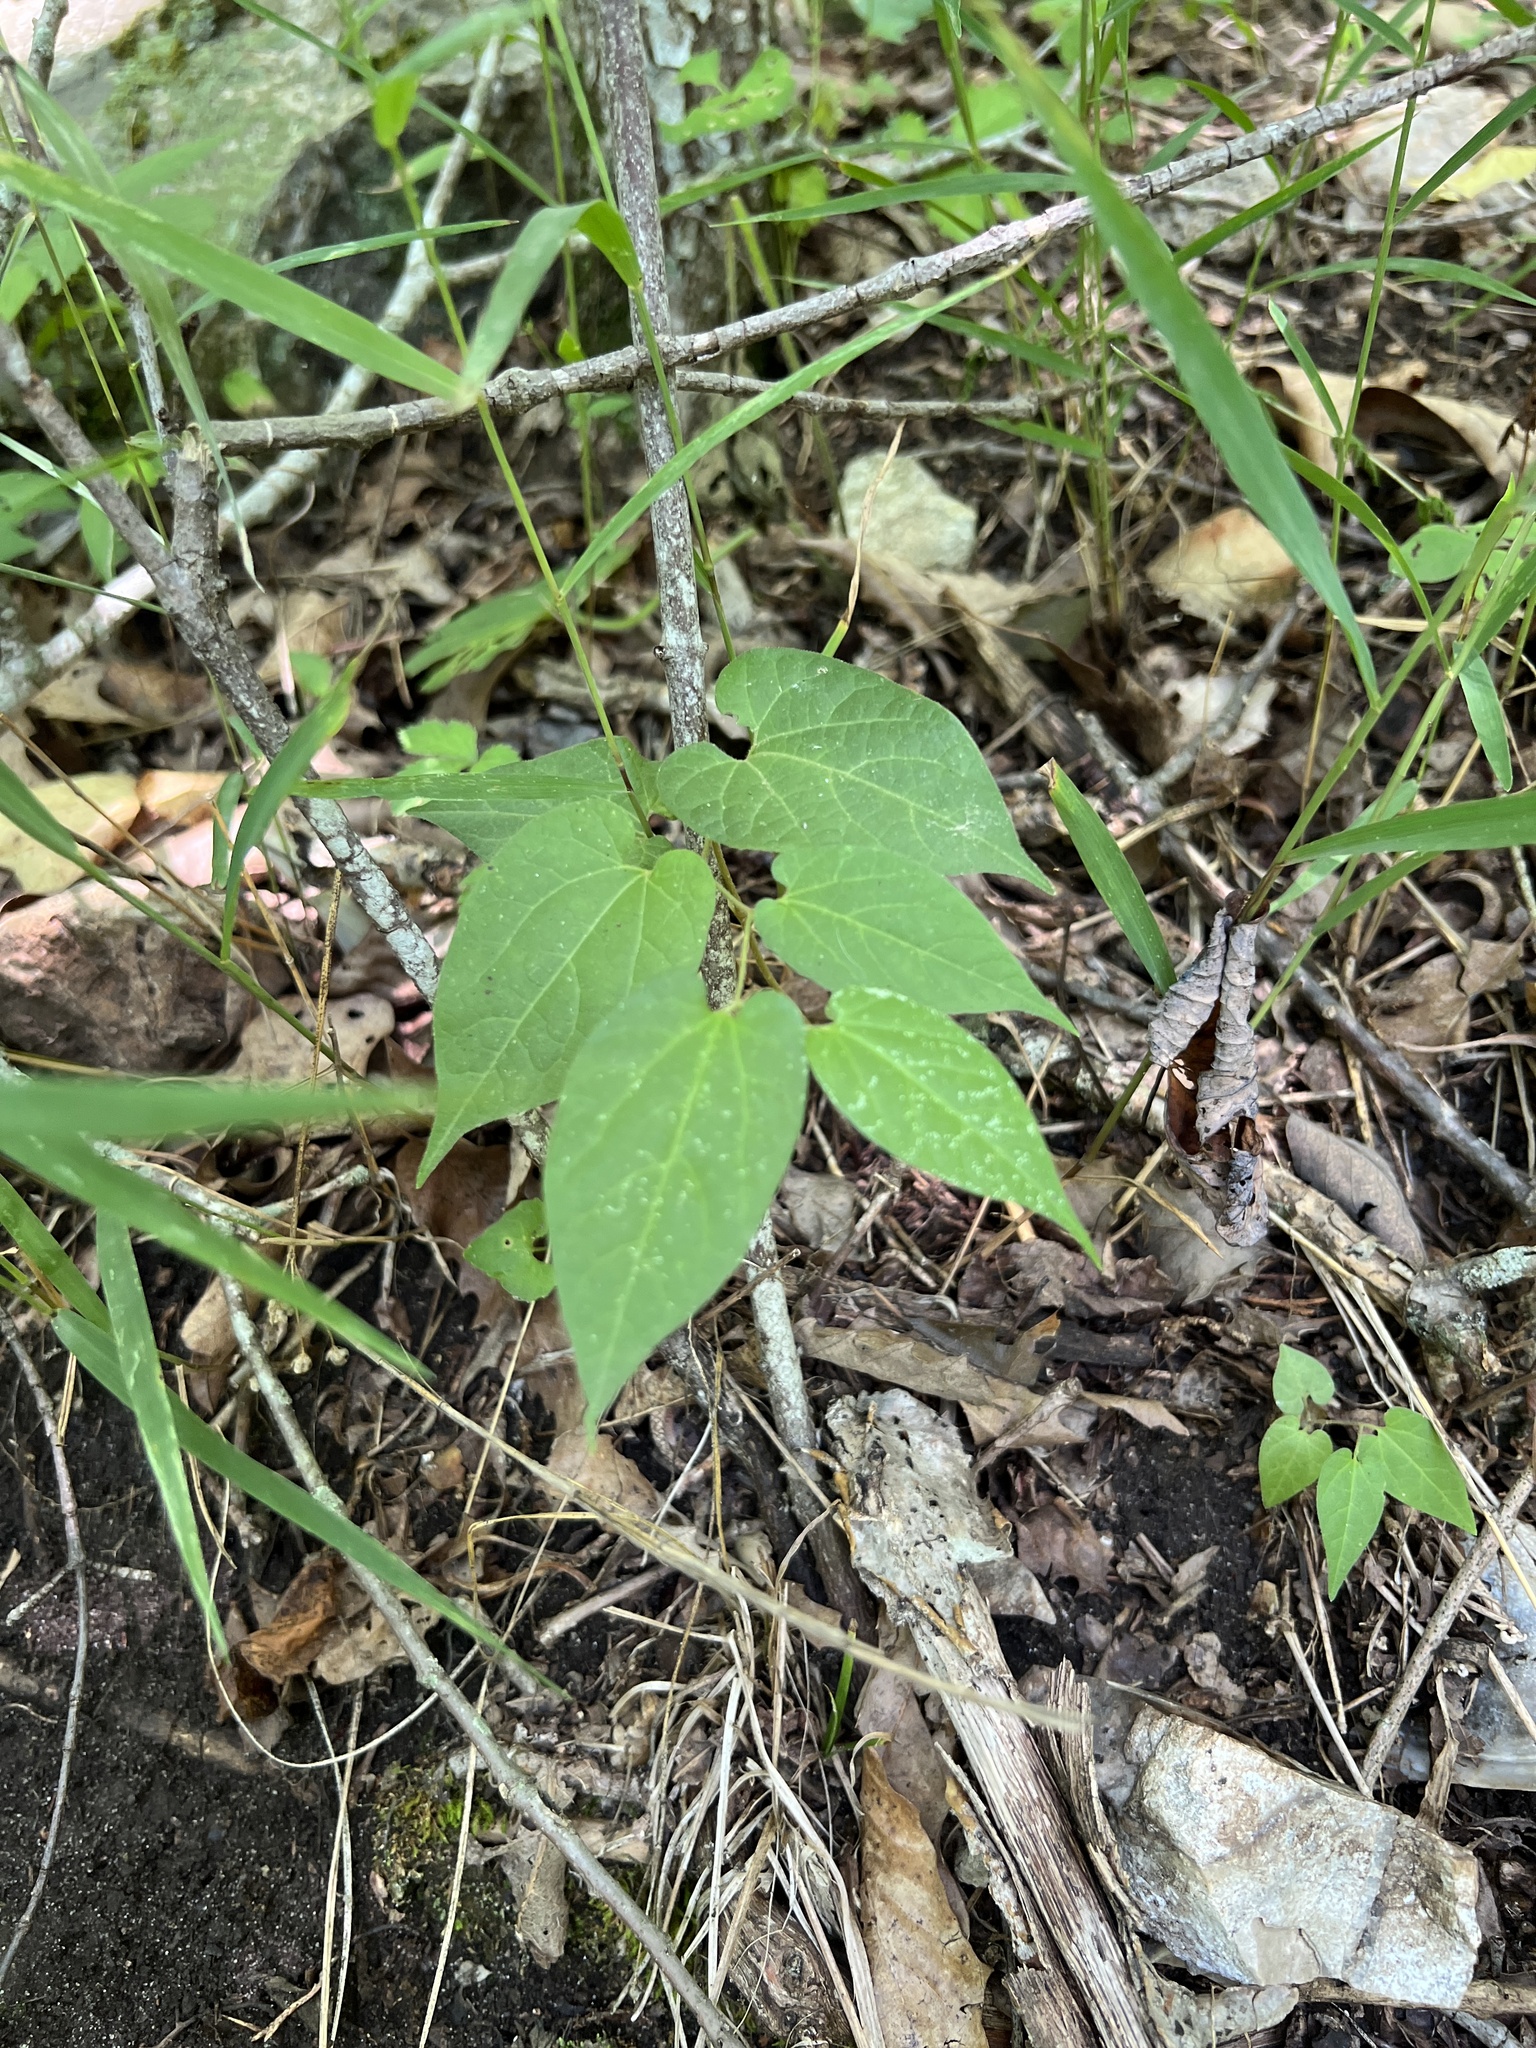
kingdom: Plantae
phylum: Tracheophyta
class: Magnoliopsida
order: Piperales
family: Aristolochiaceae
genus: Endodeca
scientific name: Endodeca serpentaria
